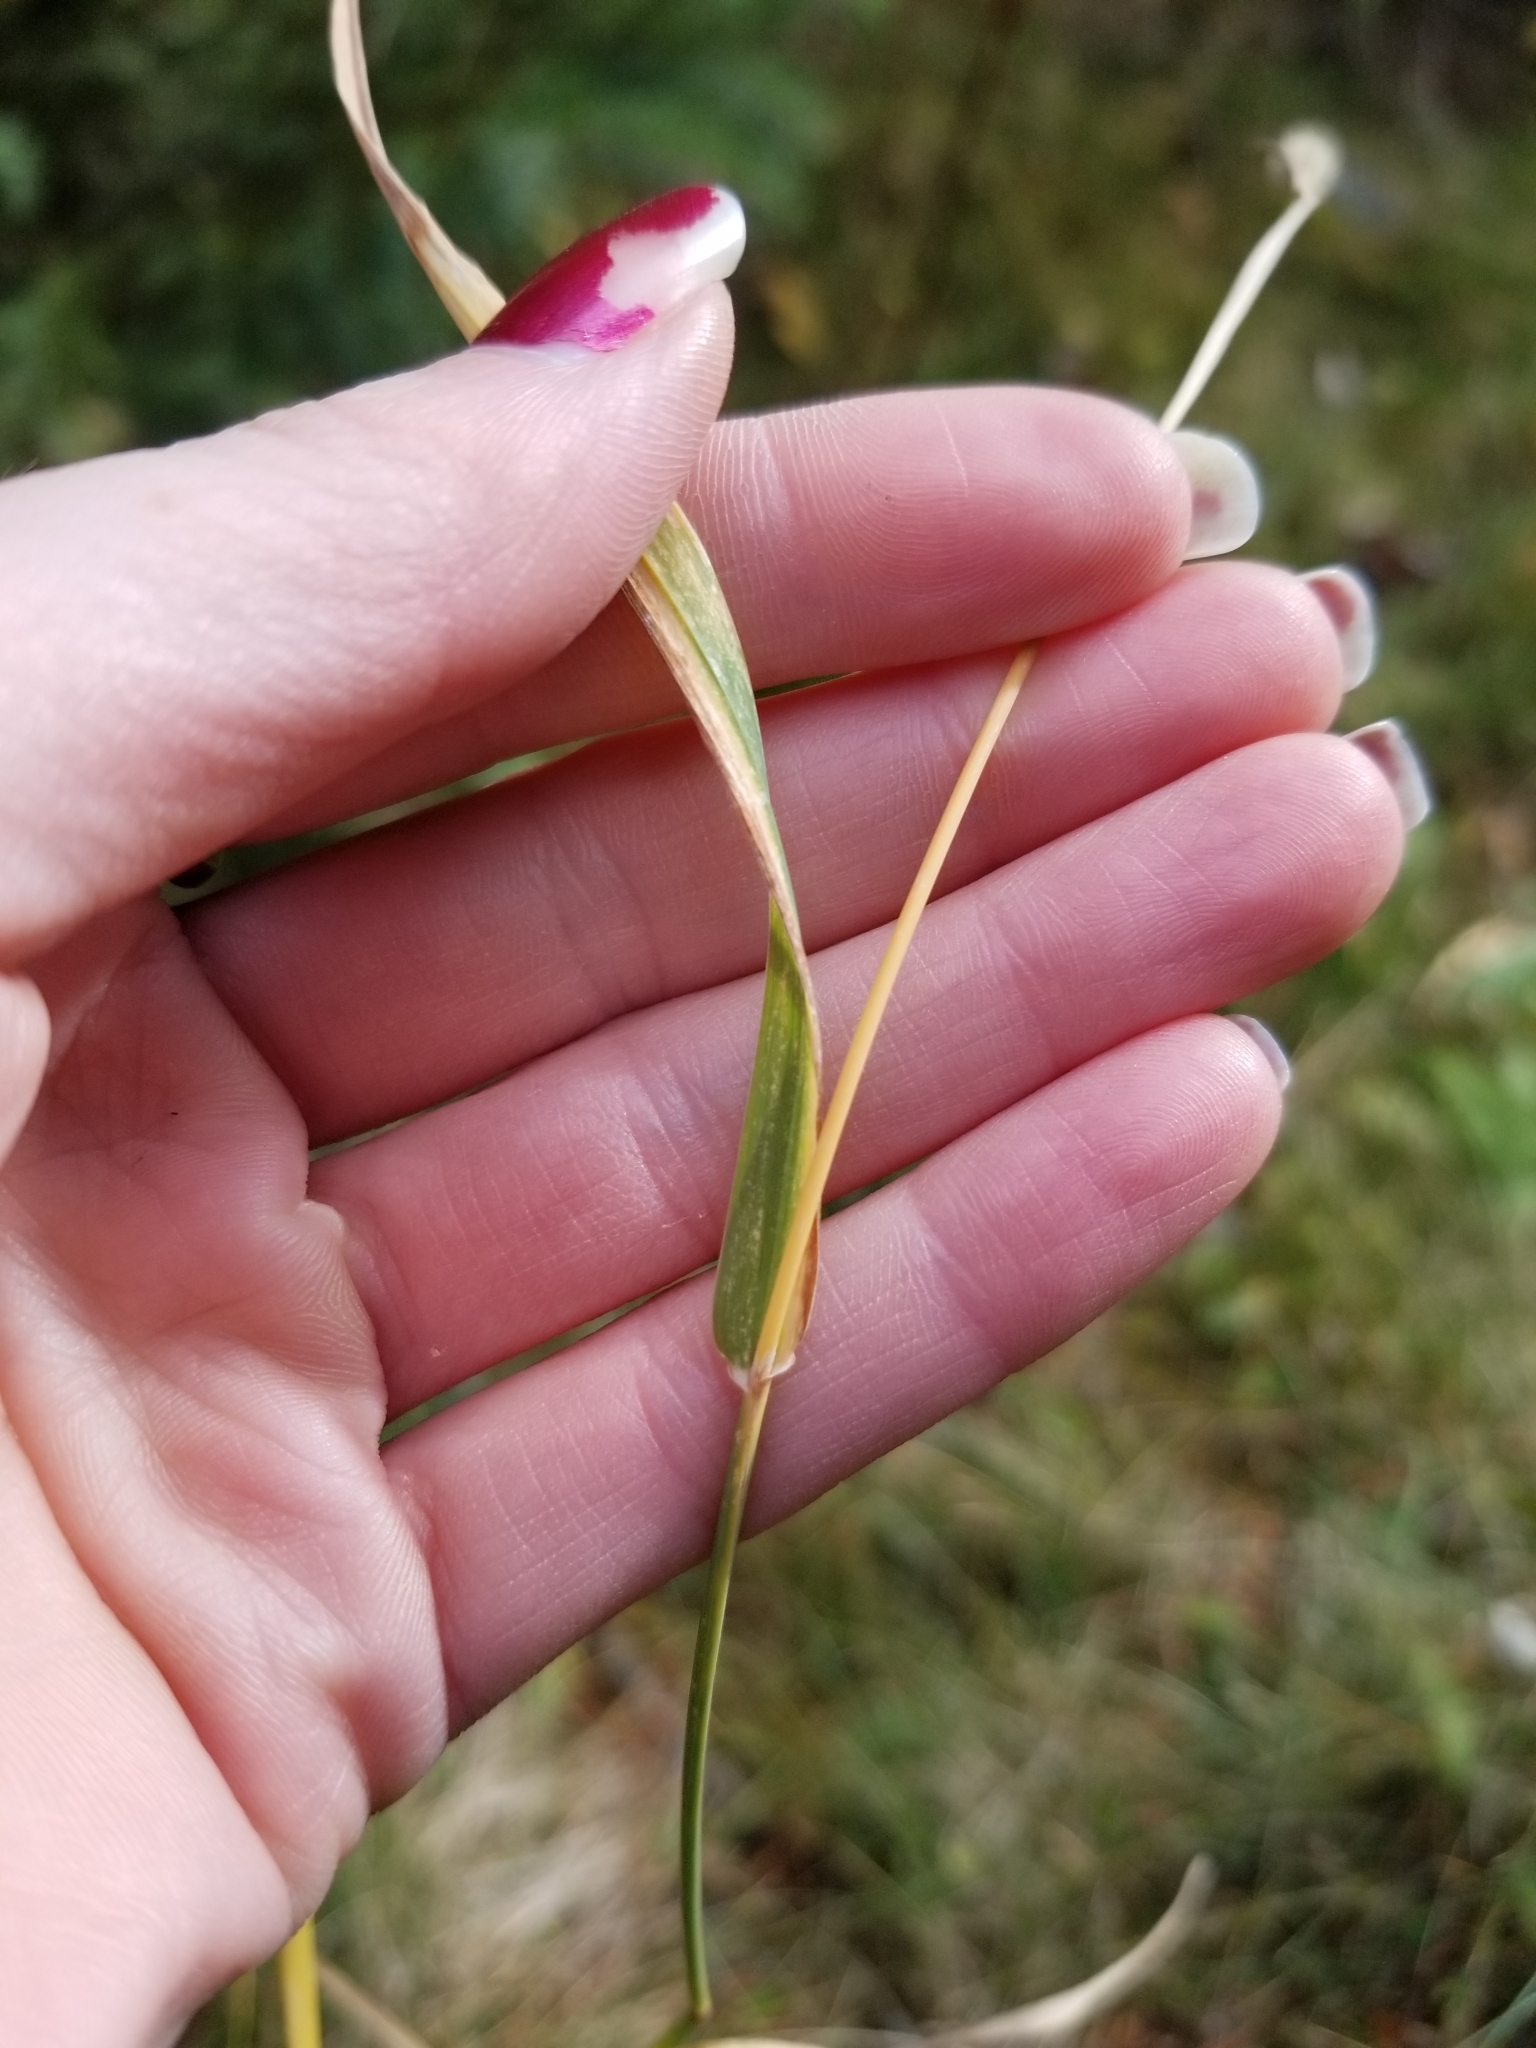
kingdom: Plantae
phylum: Tracheophyta
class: Liliopsida
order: Poales
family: Poaceae
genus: Phleum
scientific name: Phleum pratense
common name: Timothy grass
